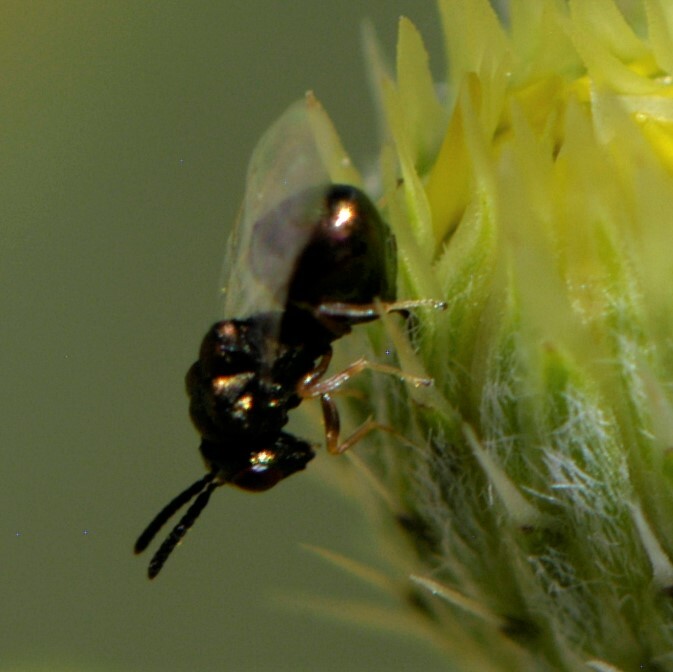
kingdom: Animalia
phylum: Arthropoda
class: Insecta
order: Hymenoptera
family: Eucharitidae
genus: Orasema
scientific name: Orasema
